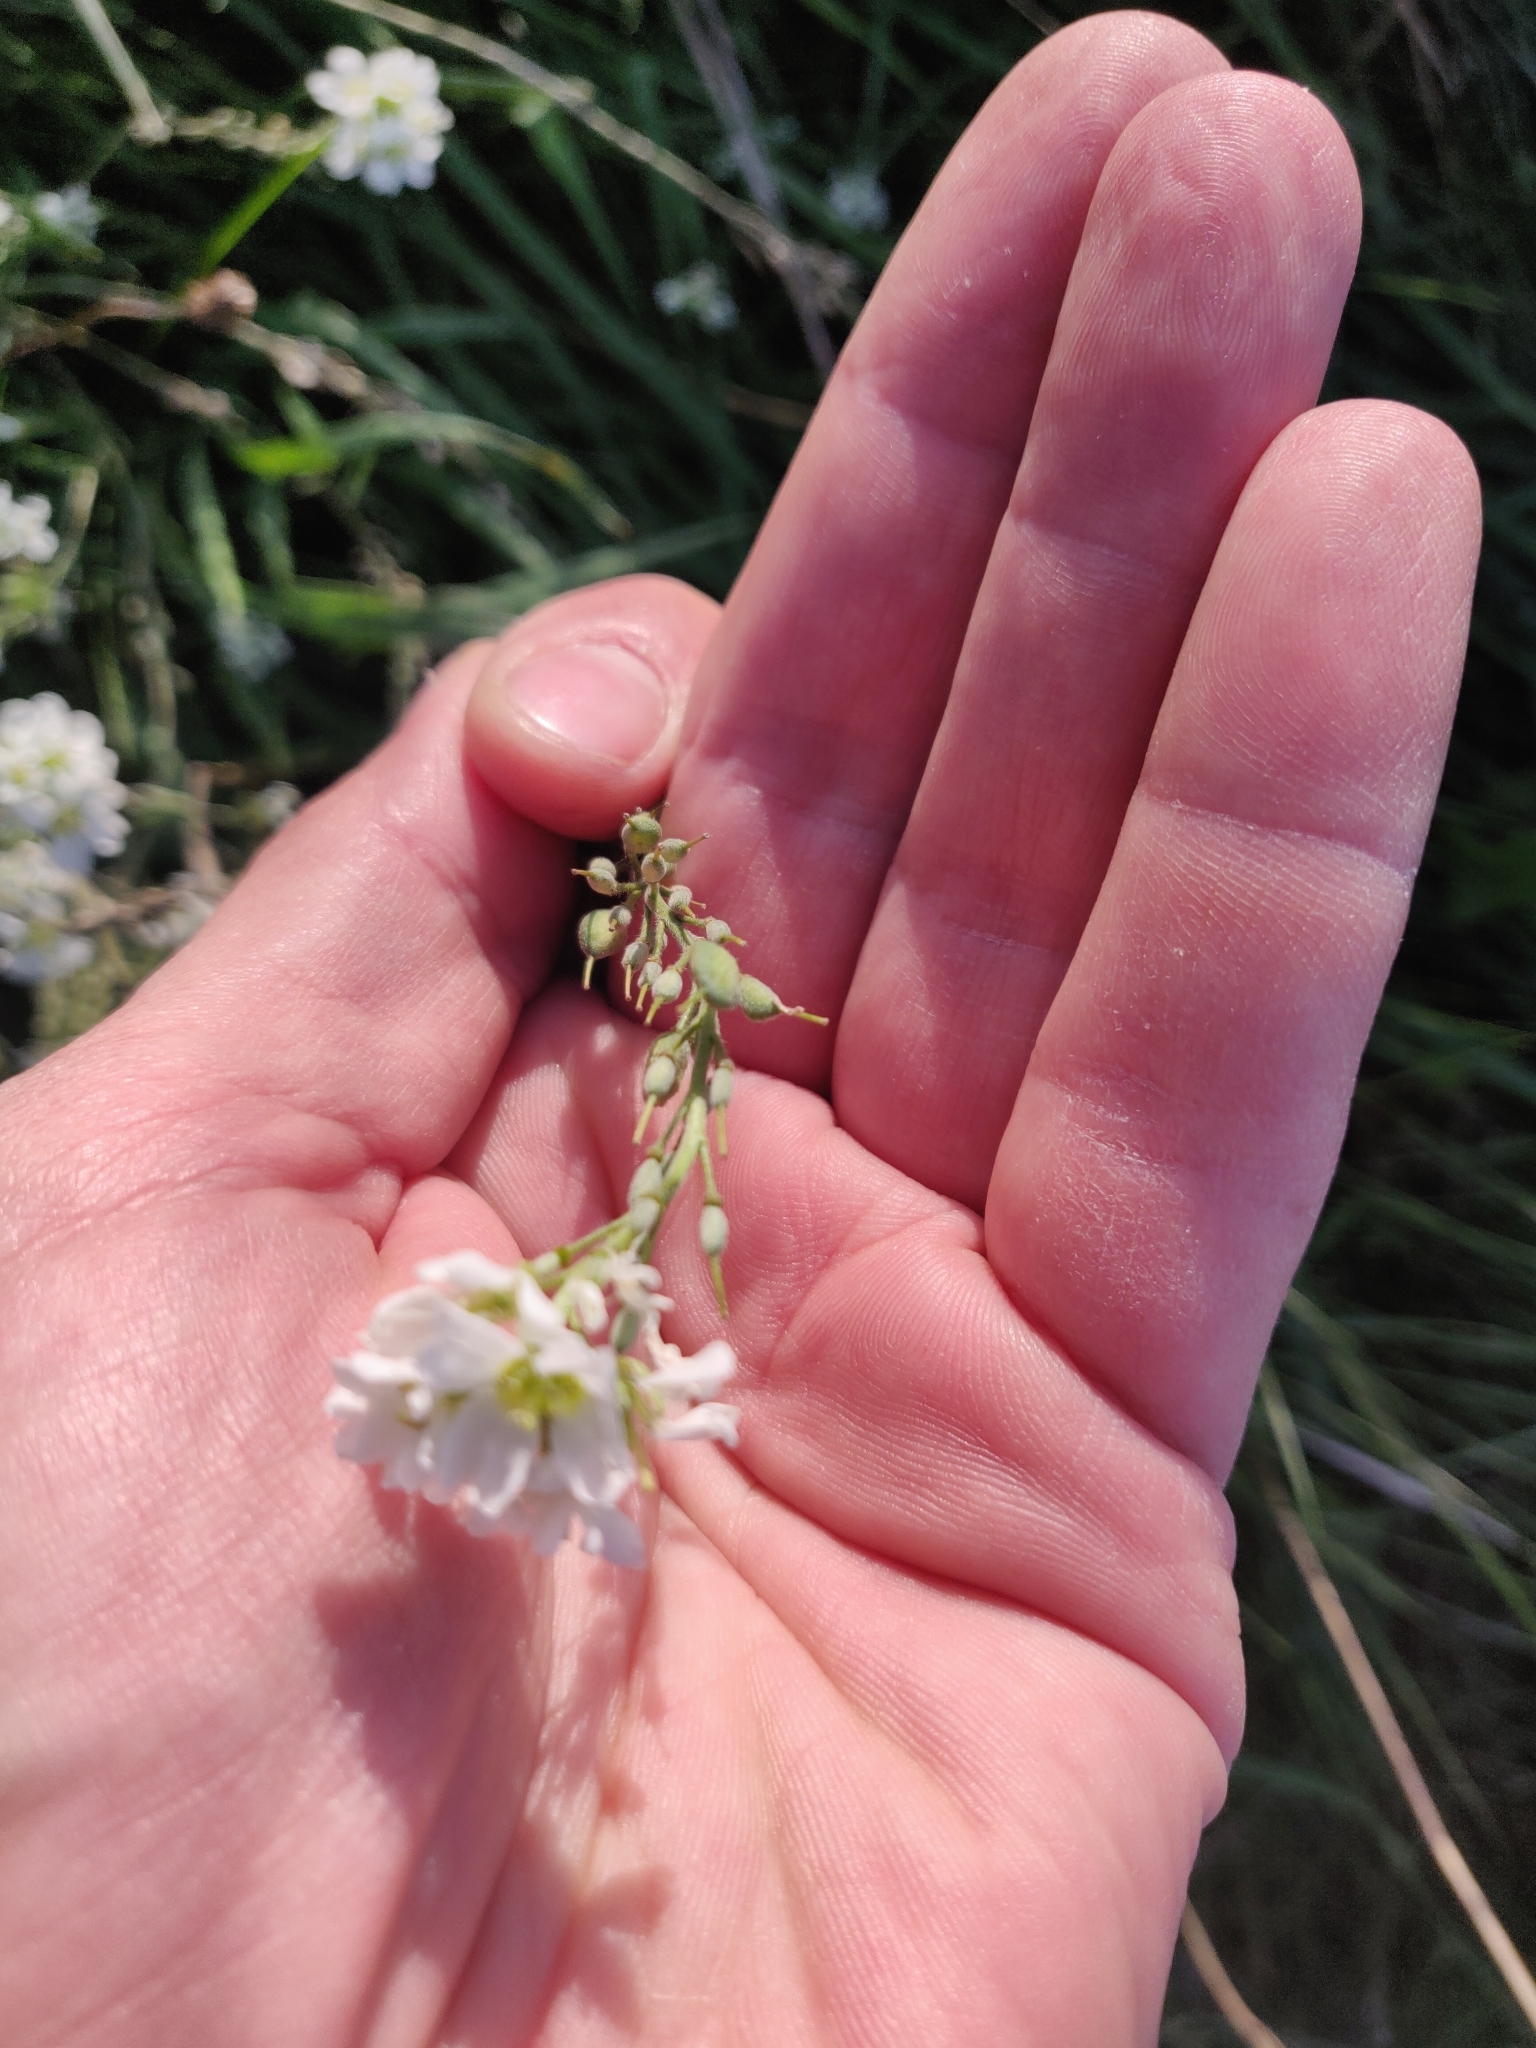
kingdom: Plantae
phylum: Tracheophyta
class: Magnoliopsida
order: Brassicales
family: Brassicaceae
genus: Berteroa
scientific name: Berteroa incana
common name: Hoary alison
